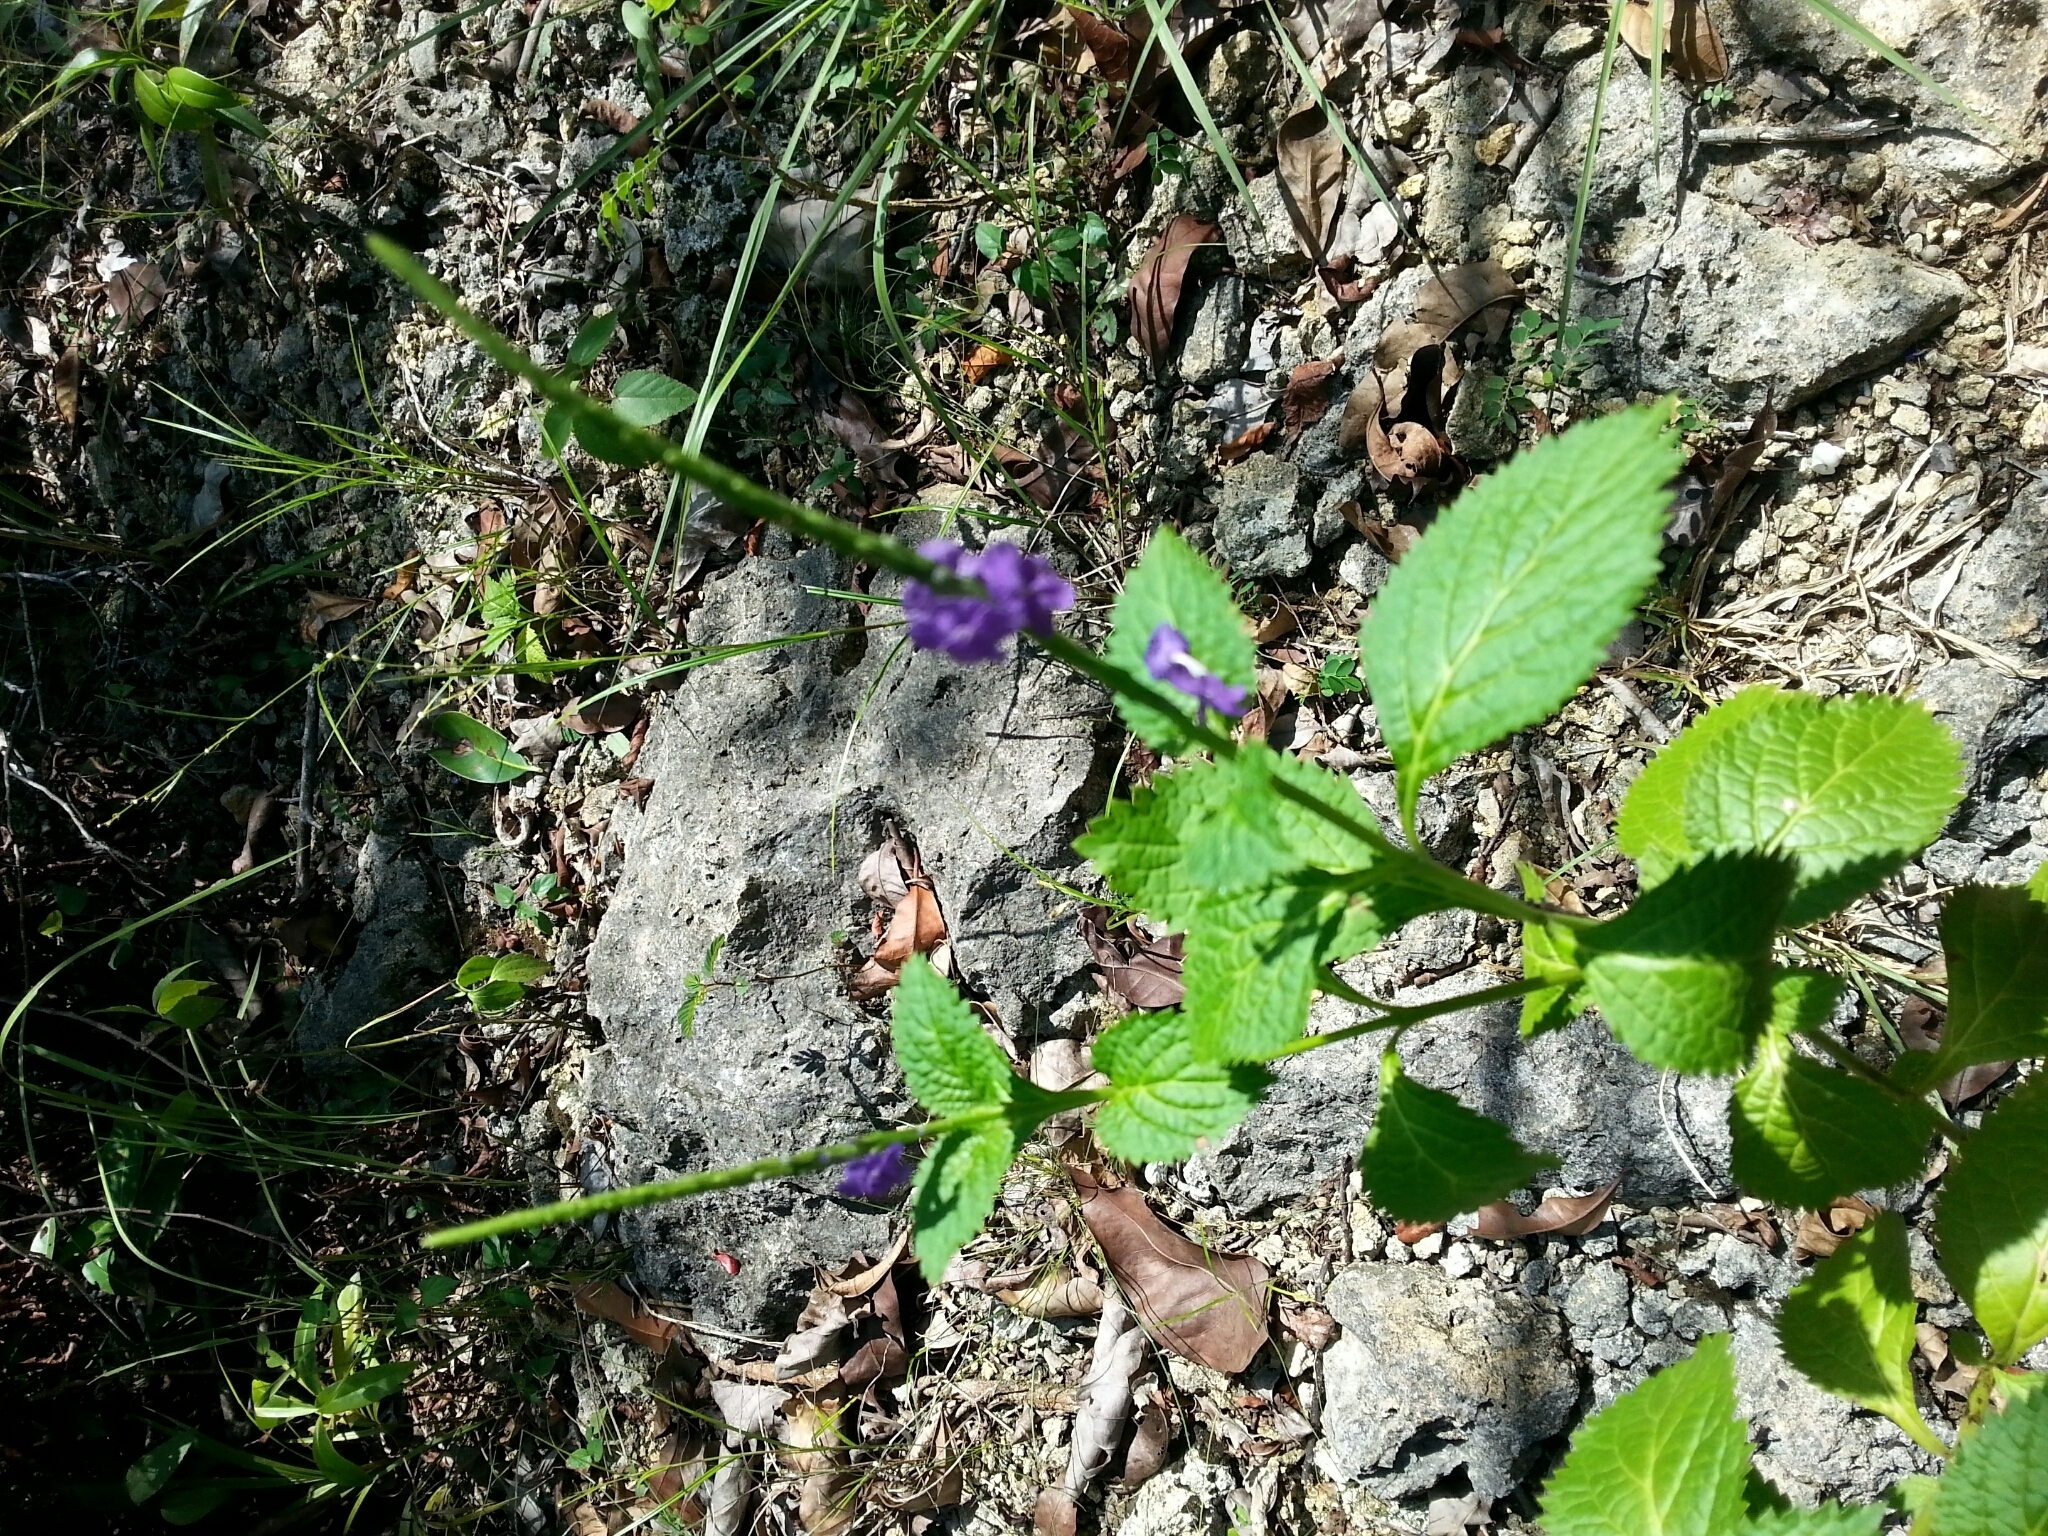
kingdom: Plantae
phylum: Tracheophyta
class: Magnoliopsida
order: Lamiales
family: Verbenaceae
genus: Stachytarpheta
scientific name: Stachytarpheta jamaicensis
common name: Light-blue snakeweed
